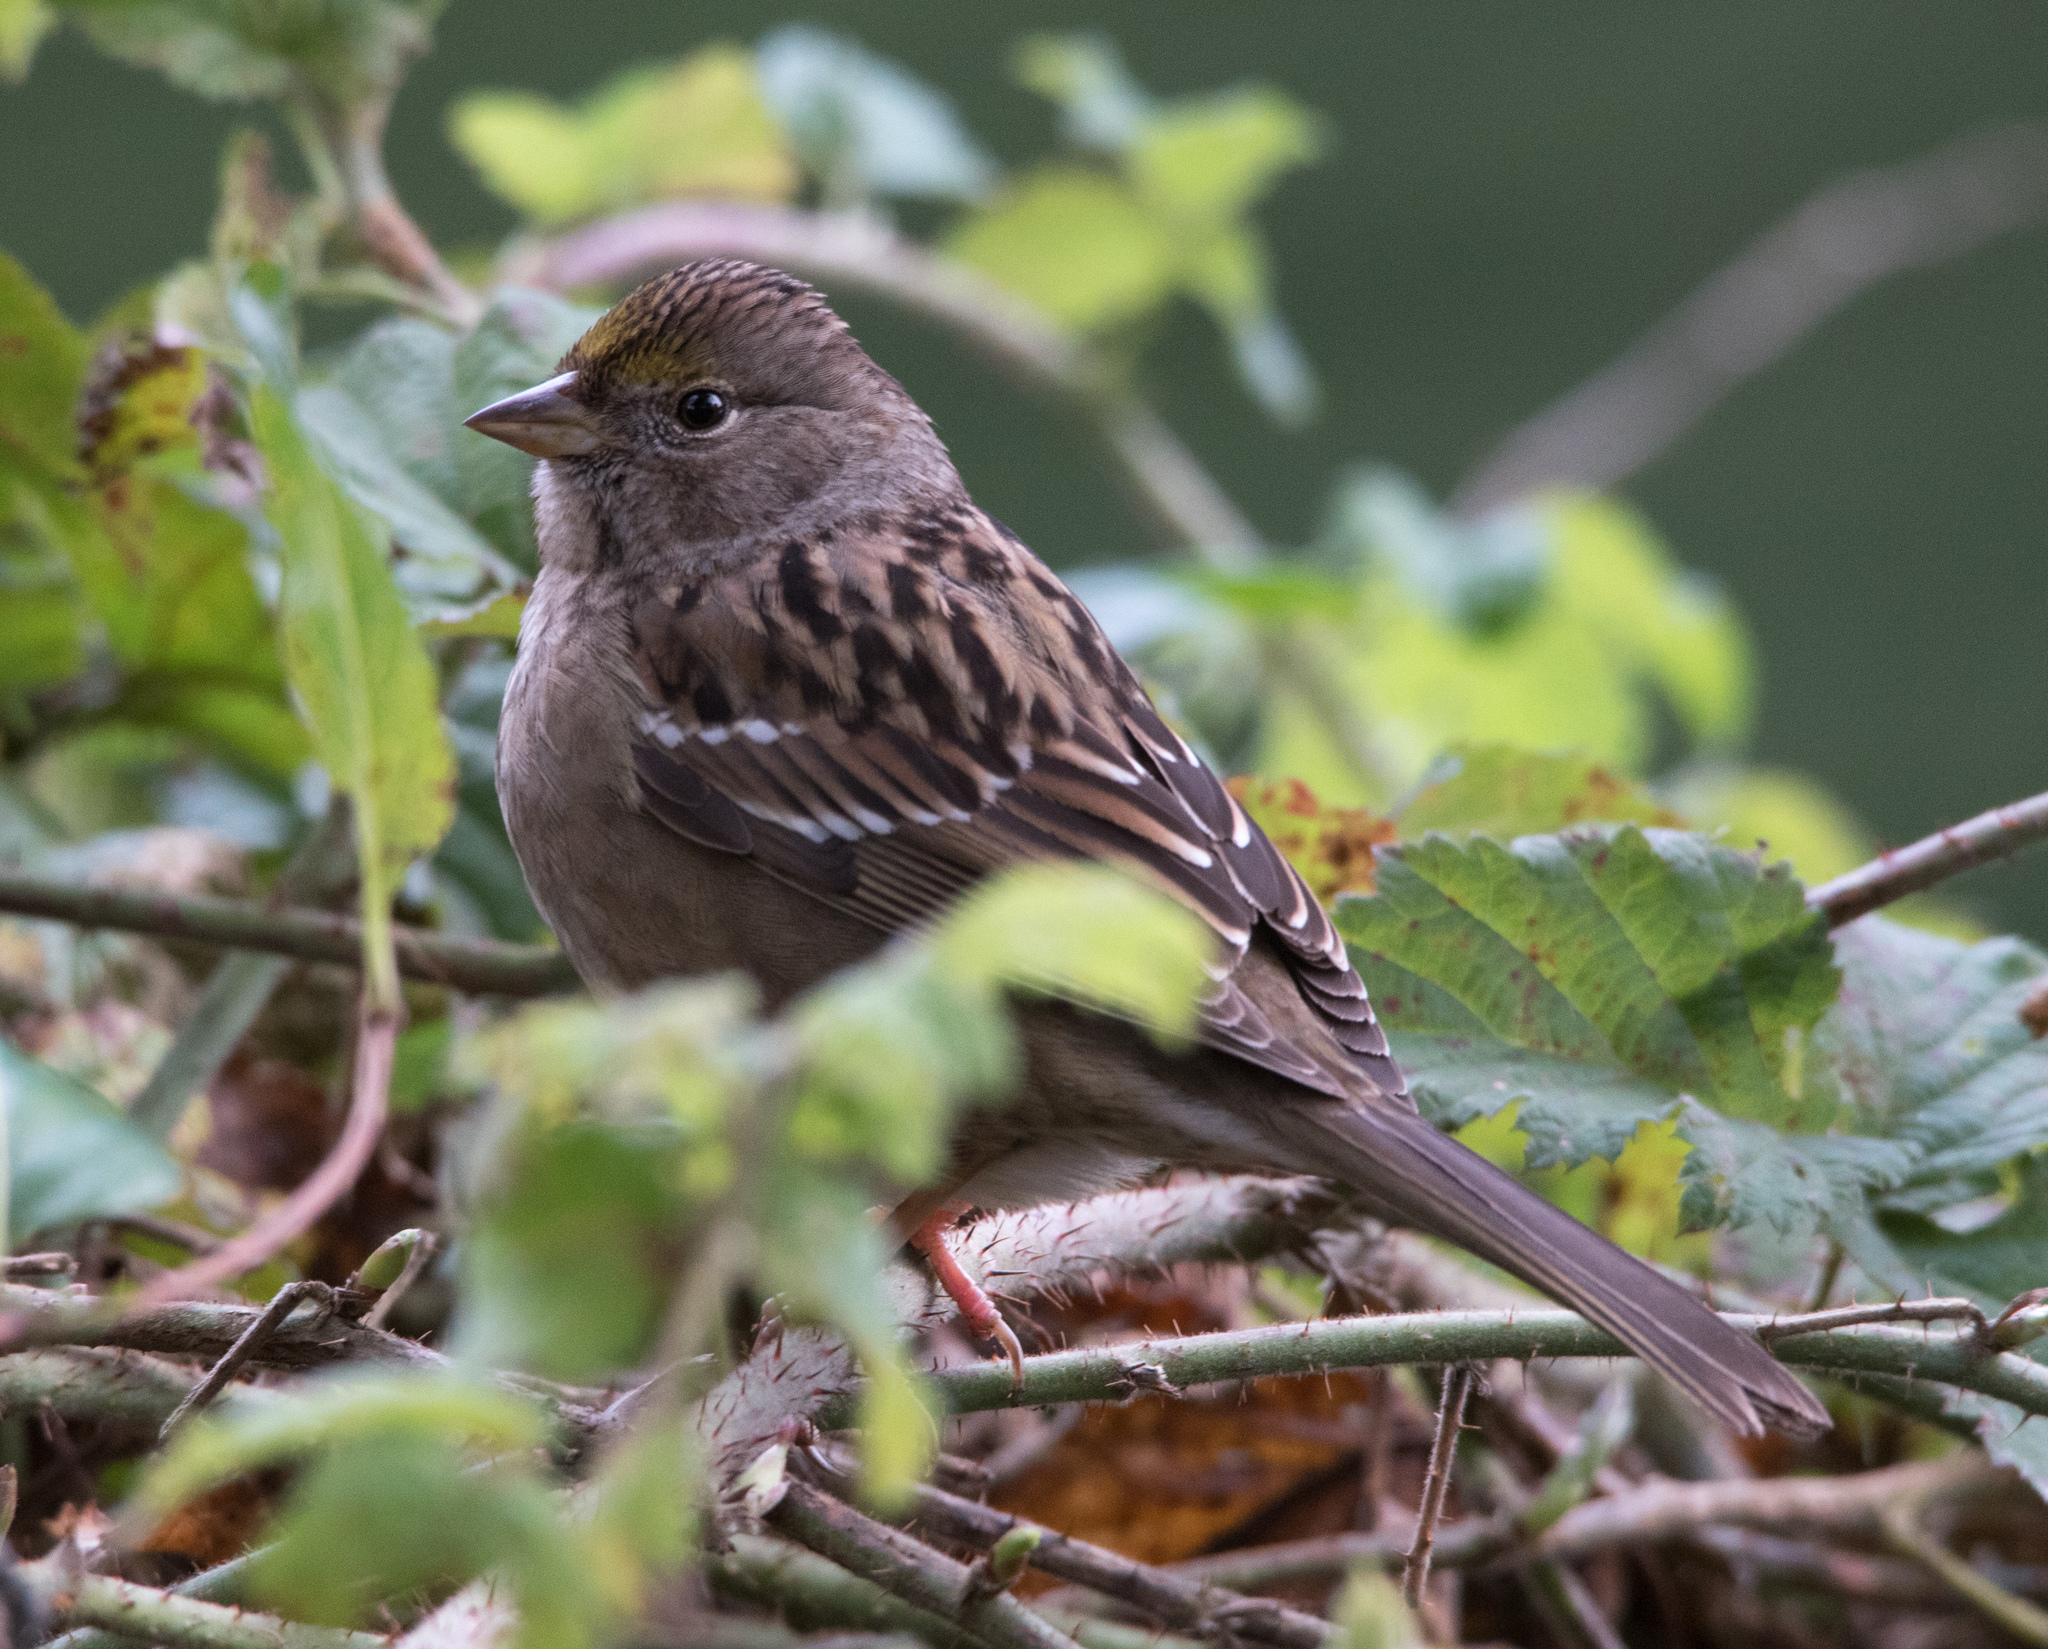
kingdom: Animalia
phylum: Chordata
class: Aves
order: Passeriformes
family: Passerellidae
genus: Zonotrichia
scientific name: Zonotrichia atricapilla
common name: Golden-crowned sparrow
